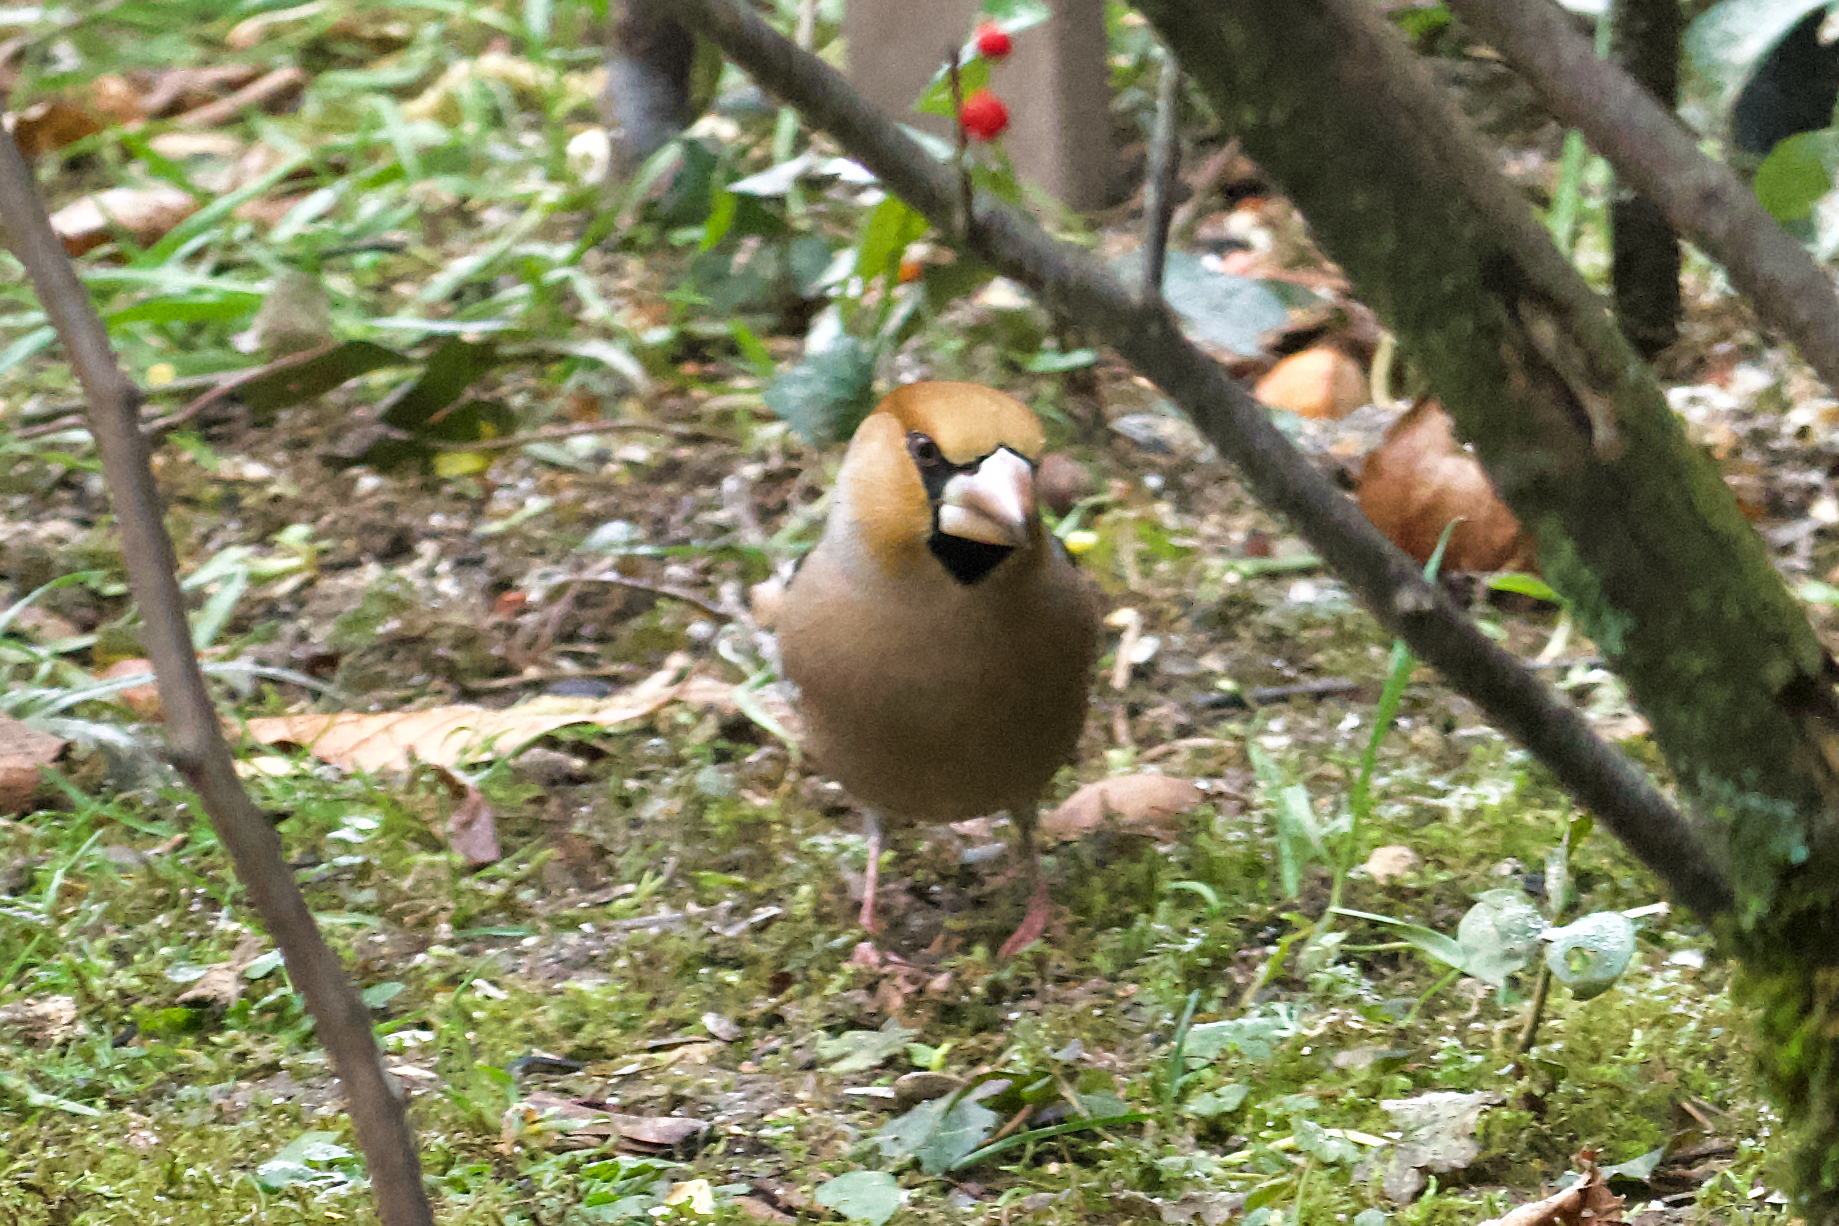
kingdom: Animalia
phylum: Chordata
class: Aves
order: Passeriformes
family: Fringillidae
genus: Coccothraustes
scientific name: Coccothraustes coccothraustes
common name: Hawfinch
